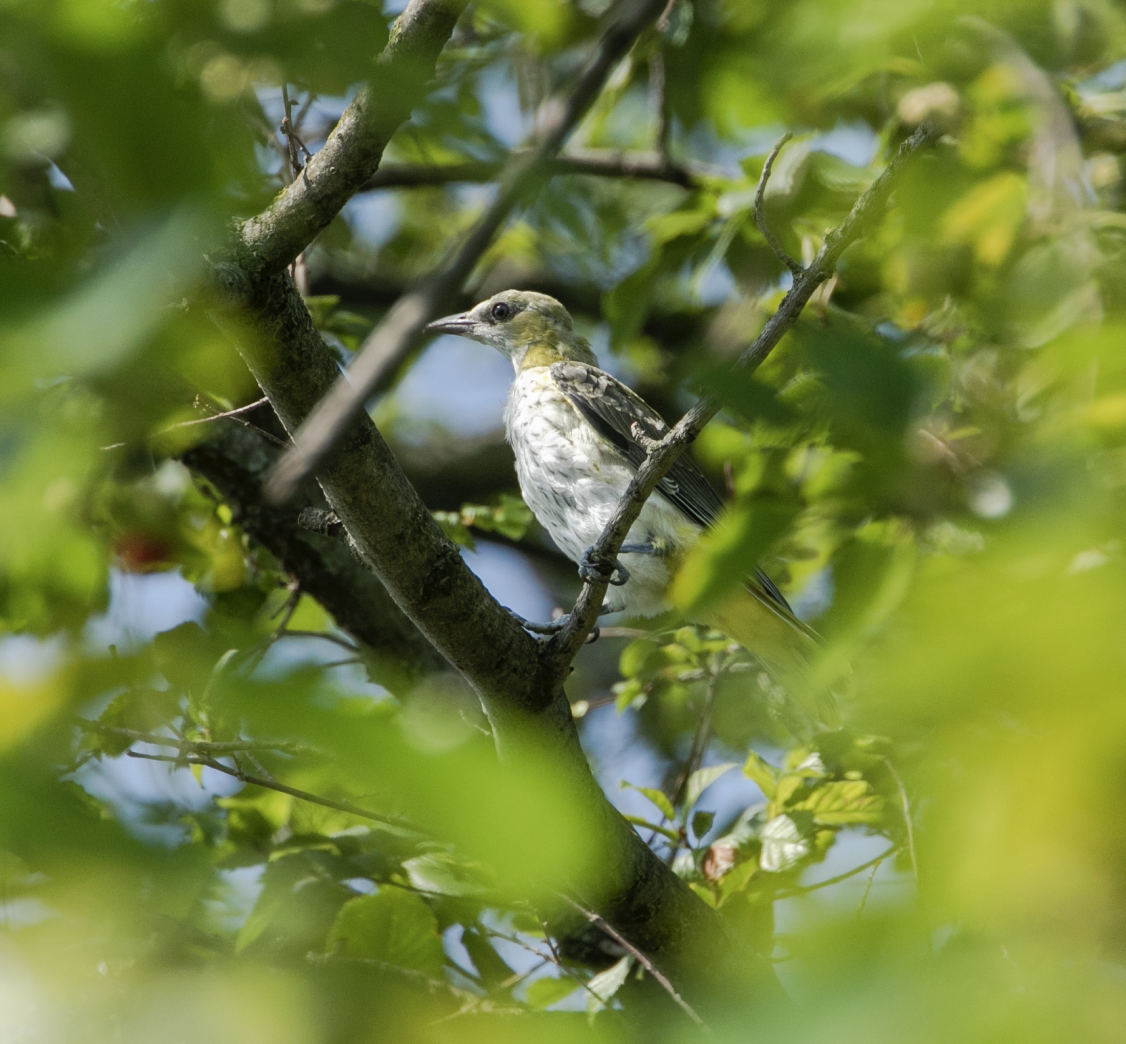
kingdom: Animalia
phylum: Chordata
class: Aves
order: Passeriformes
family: Oriolidae
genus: Oriolus
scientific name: Oriolus oriolus
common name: Eurasian golden oriole
